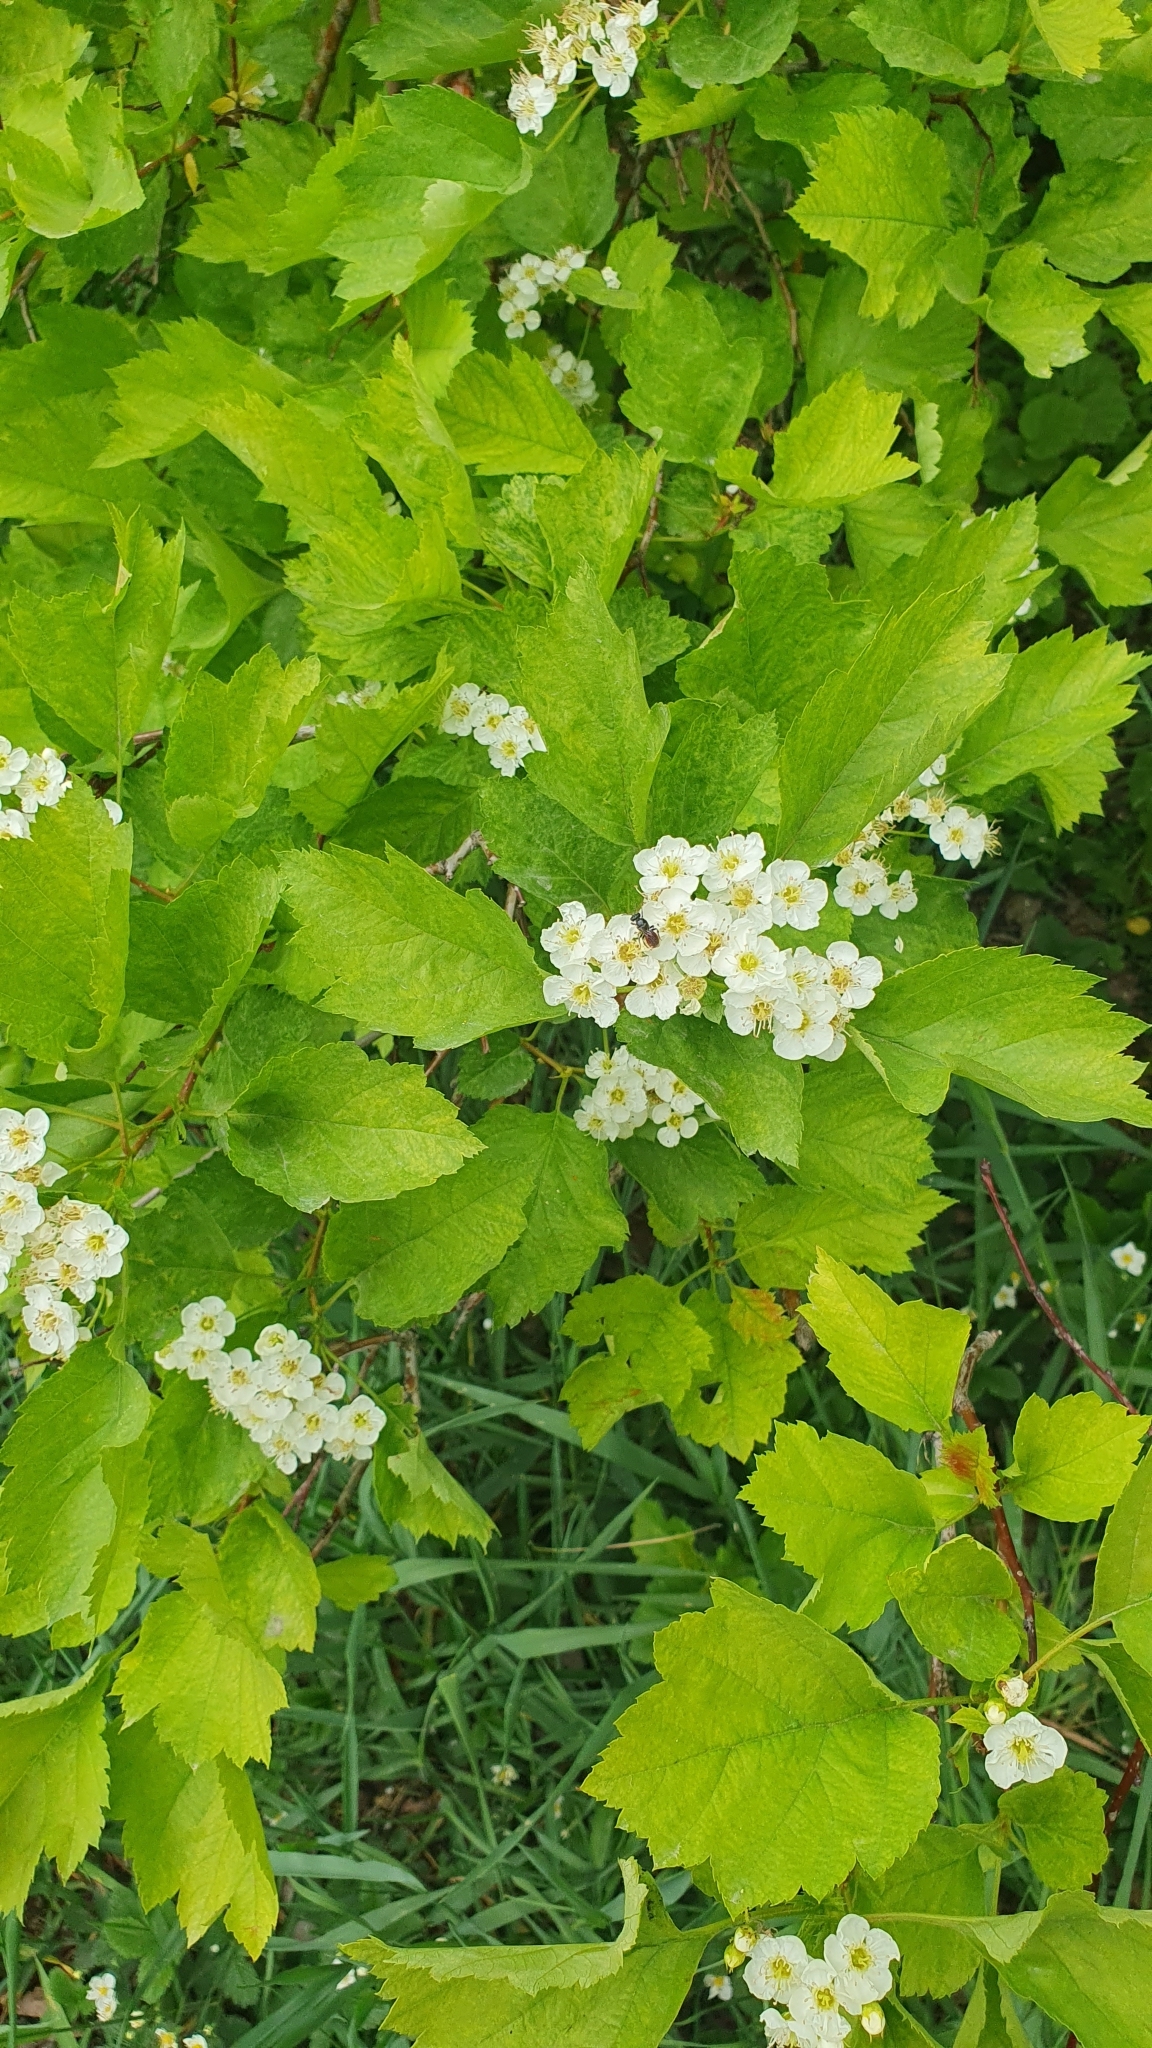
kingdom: Plantae
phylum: Tracheophyta
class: Magnoliopsida
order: Rosales
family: Rosaceae
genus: Crataegus
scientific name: Crataegus sanguinea
